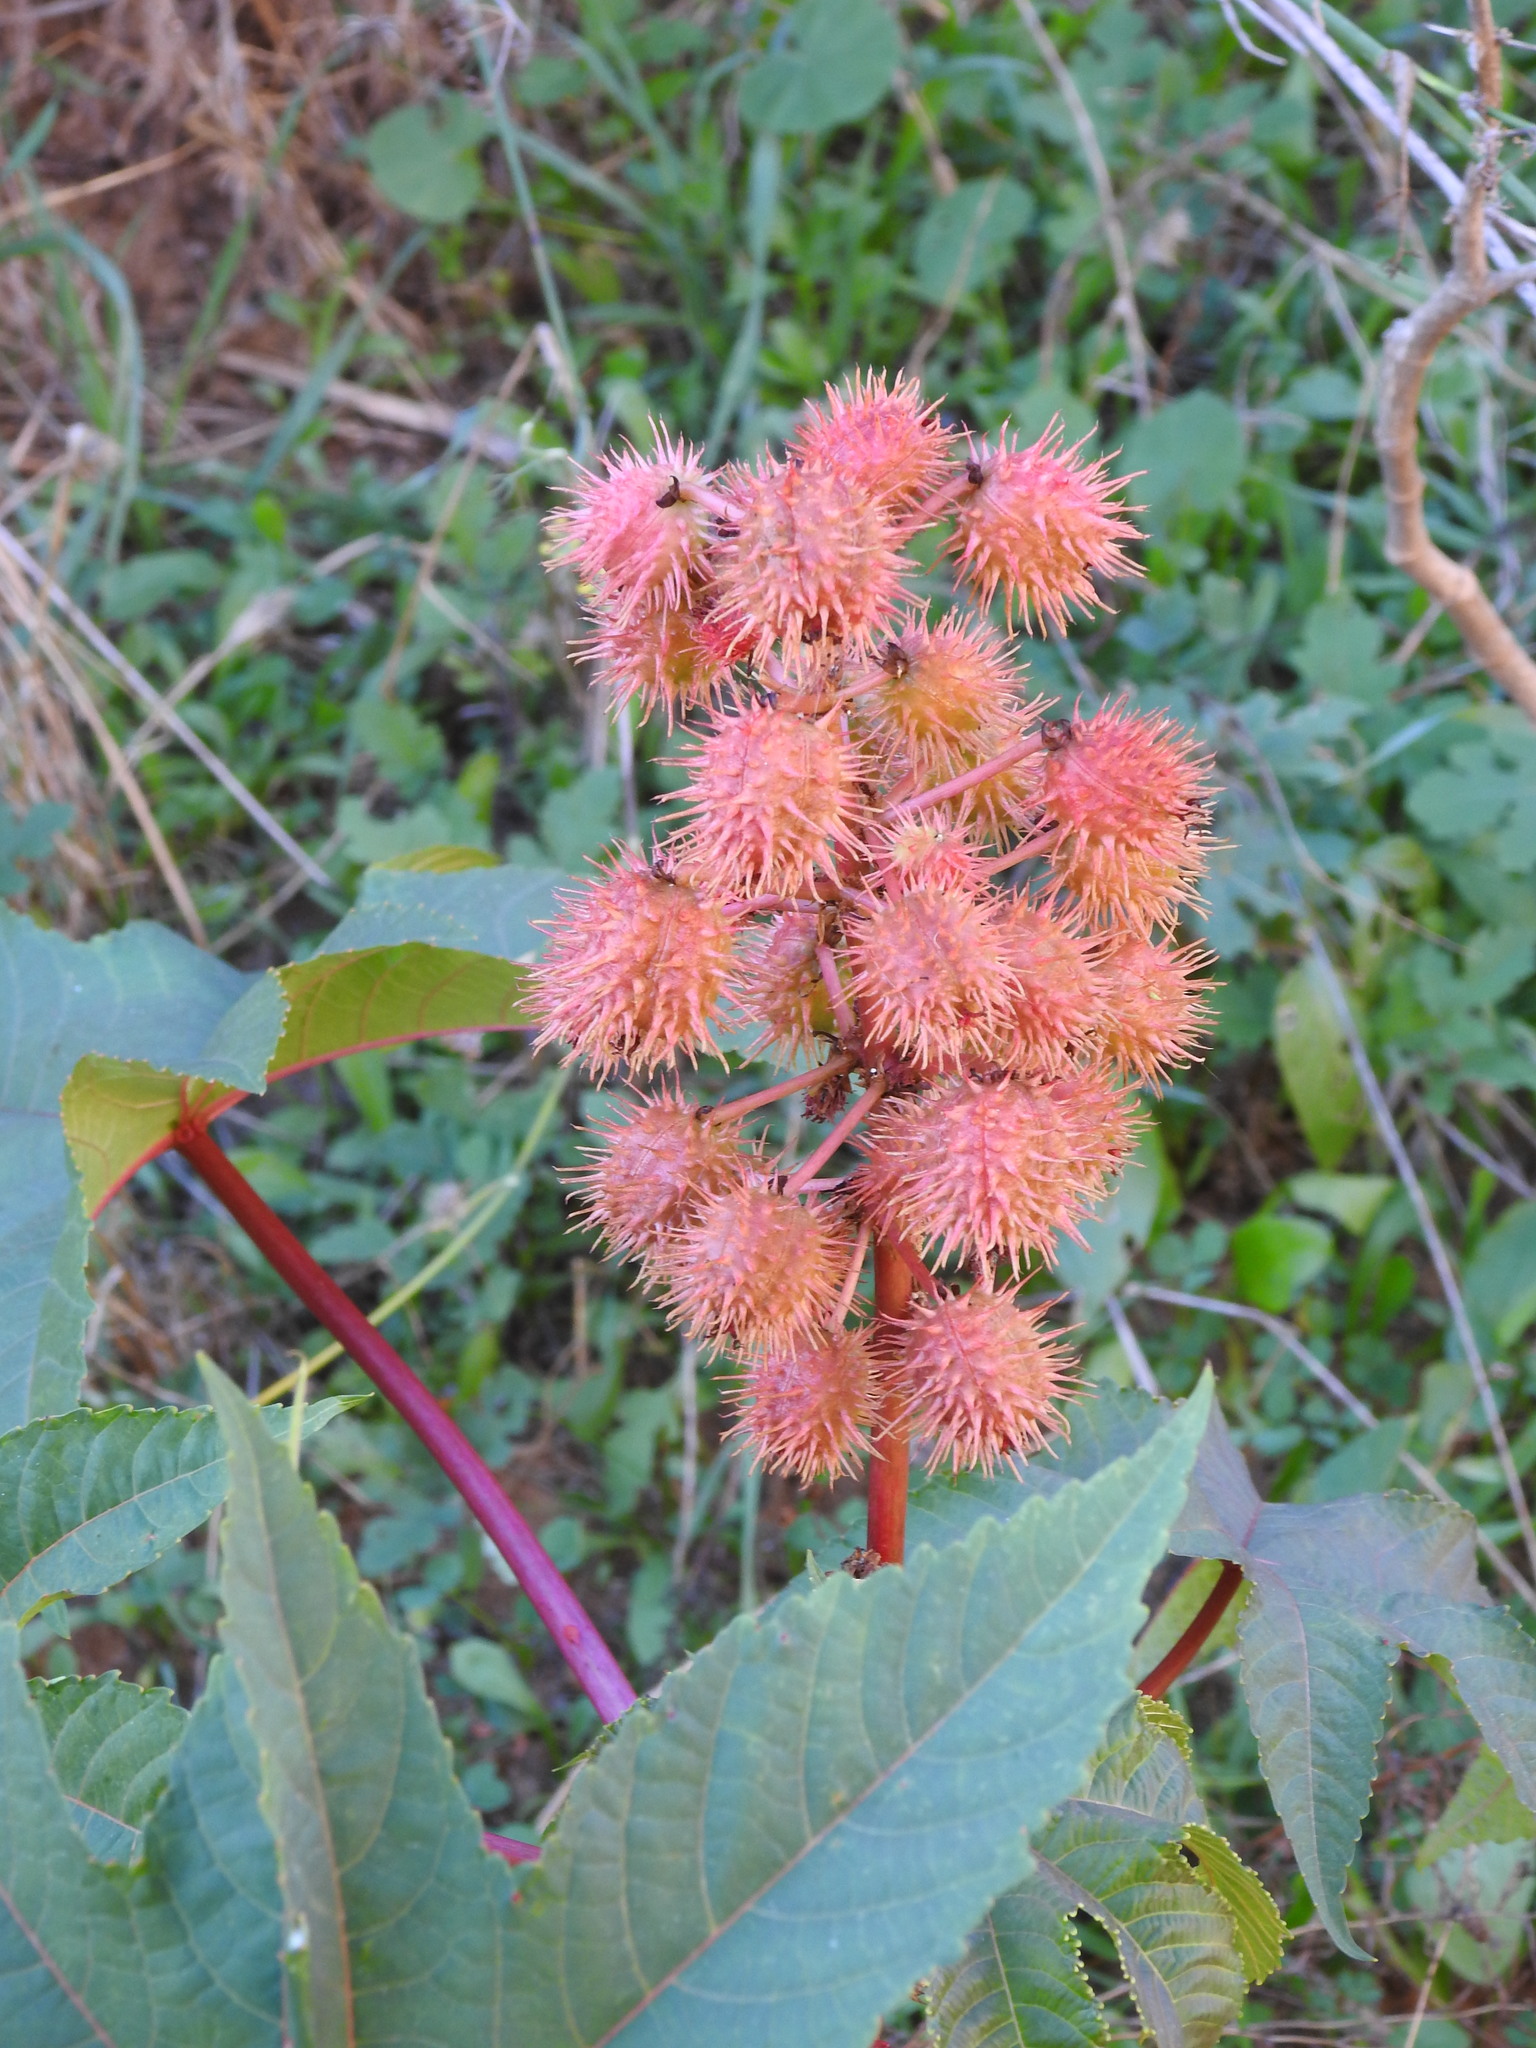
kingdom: Plantae
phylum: Tracheophyta
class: Magnoliopsida
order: Malpighiales
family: Euphorbiaceae
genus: Ricinus
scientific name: Ricinus communis
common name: Castor-oil-plant
